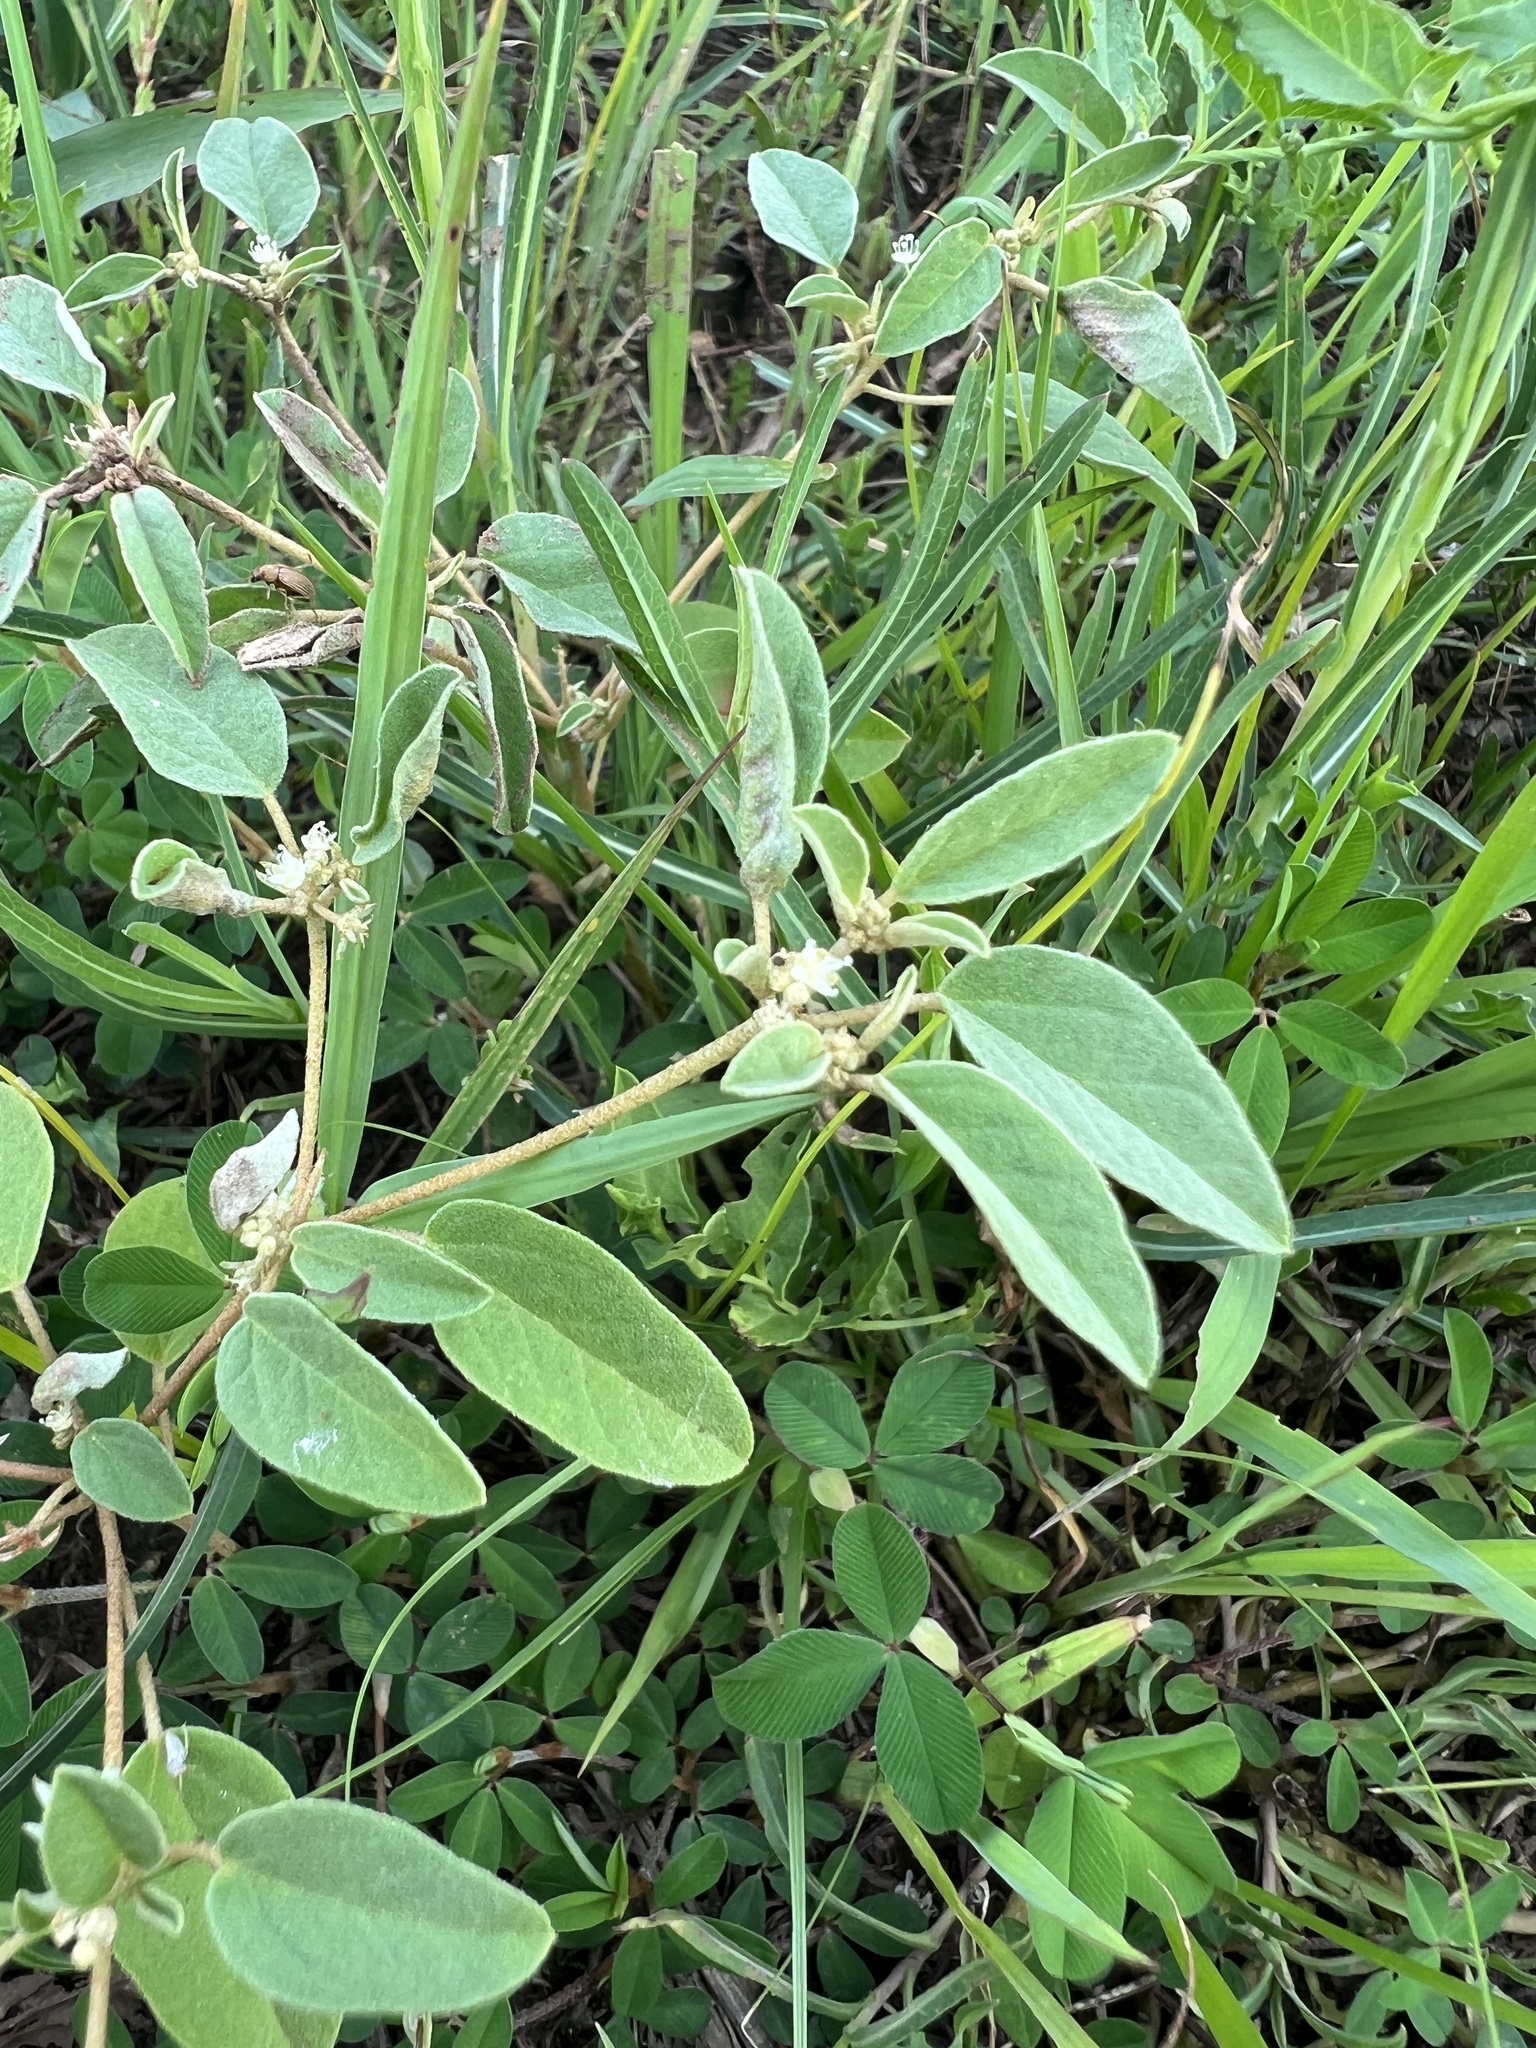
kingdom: Plantae
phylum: Tracheophyta
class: Magnoliopsida
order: Malpighiales
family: Euphorbiaceae
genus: Croton
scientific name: Croton monanthogynus
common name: One-seed croton
